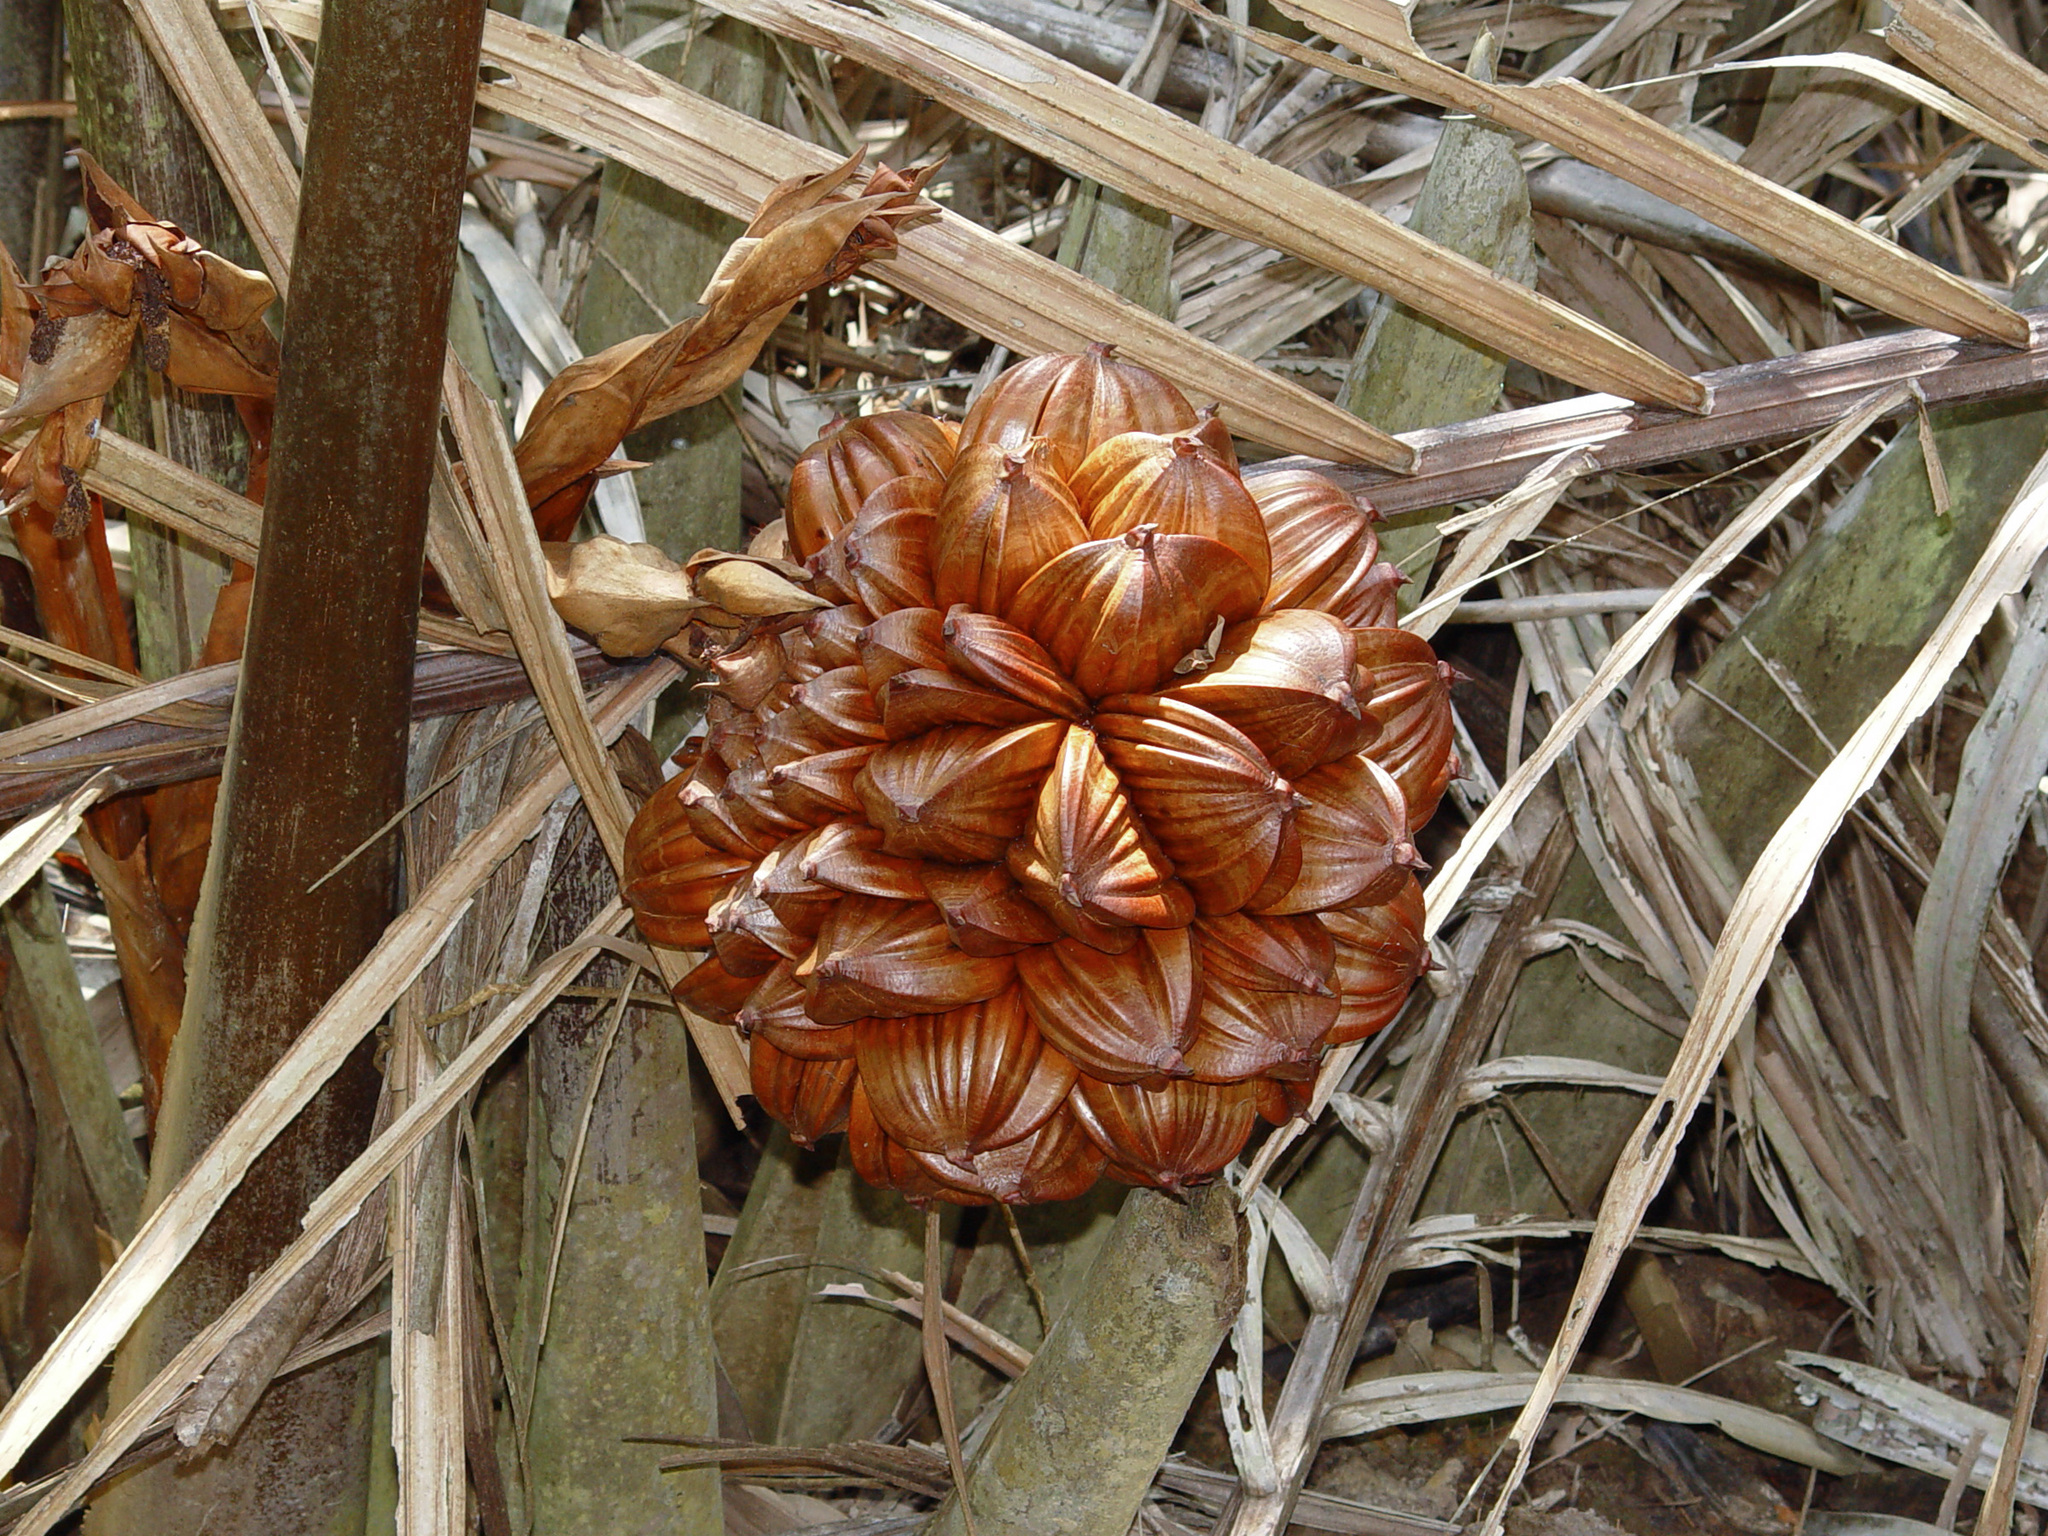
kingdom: Plantae
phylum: Tracheophyta
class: Liliopsida
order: Arecales
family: Arecaceae
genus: Nypa
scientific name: Nypa fruticans
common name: Mangrove palm
